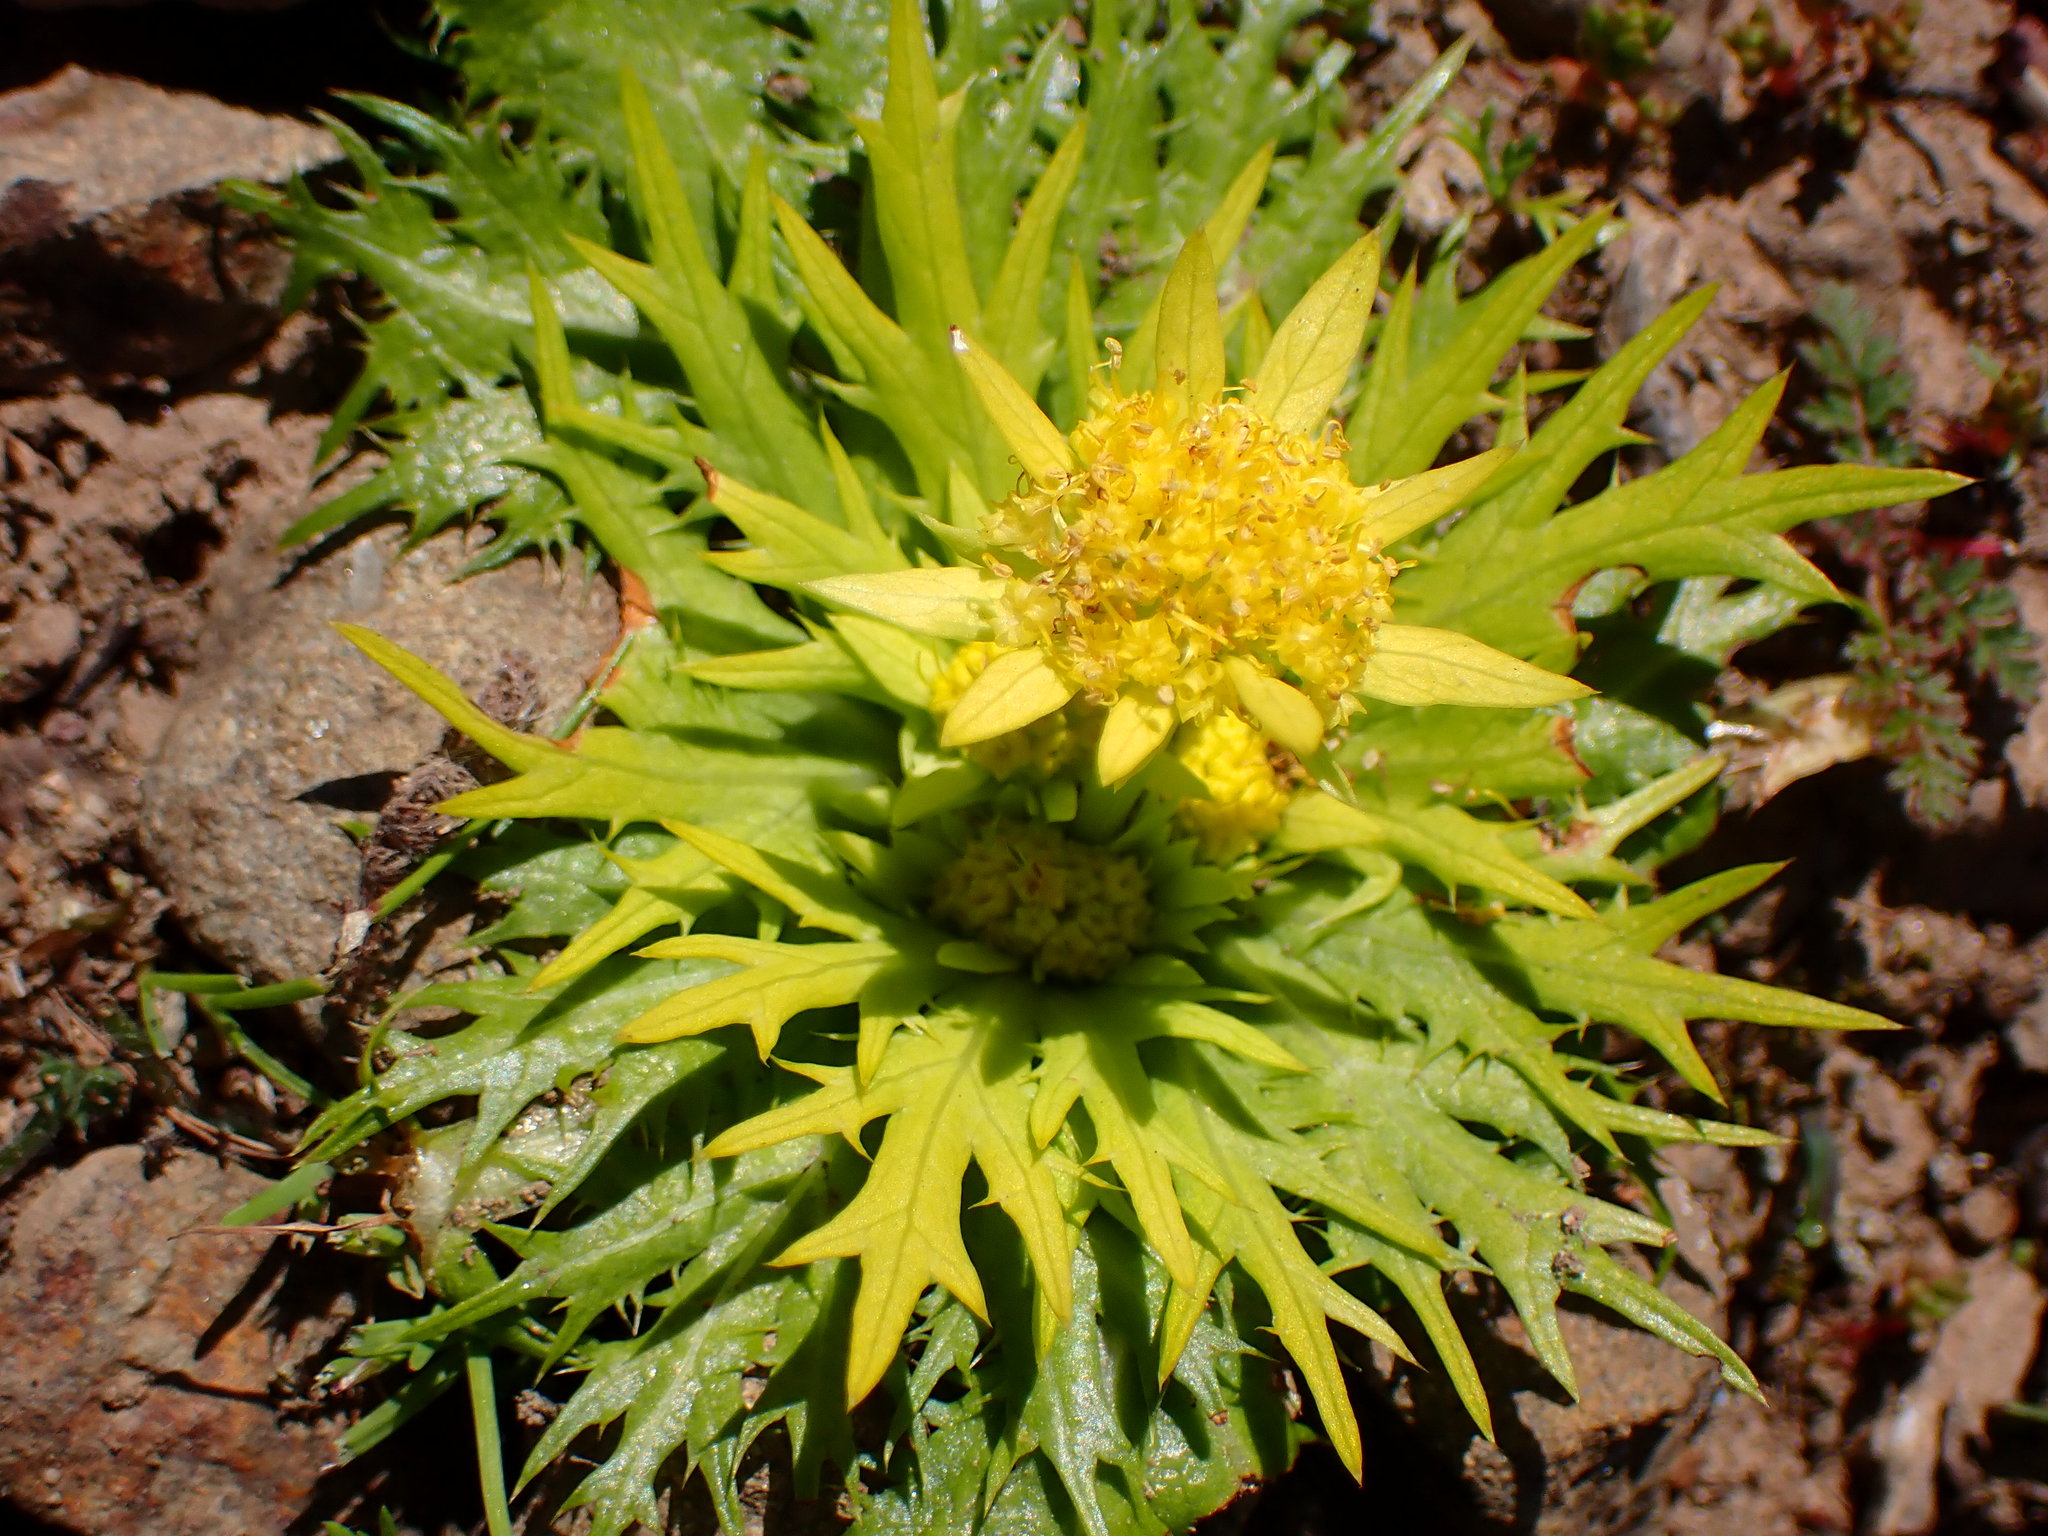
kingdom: Plantae
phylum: Tracheophyta
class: Magnoliopsida
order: Apiales
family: Apiaceae
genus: Sanicula
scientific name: Sanicula arctopoides
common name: Footsteps-of-spring
